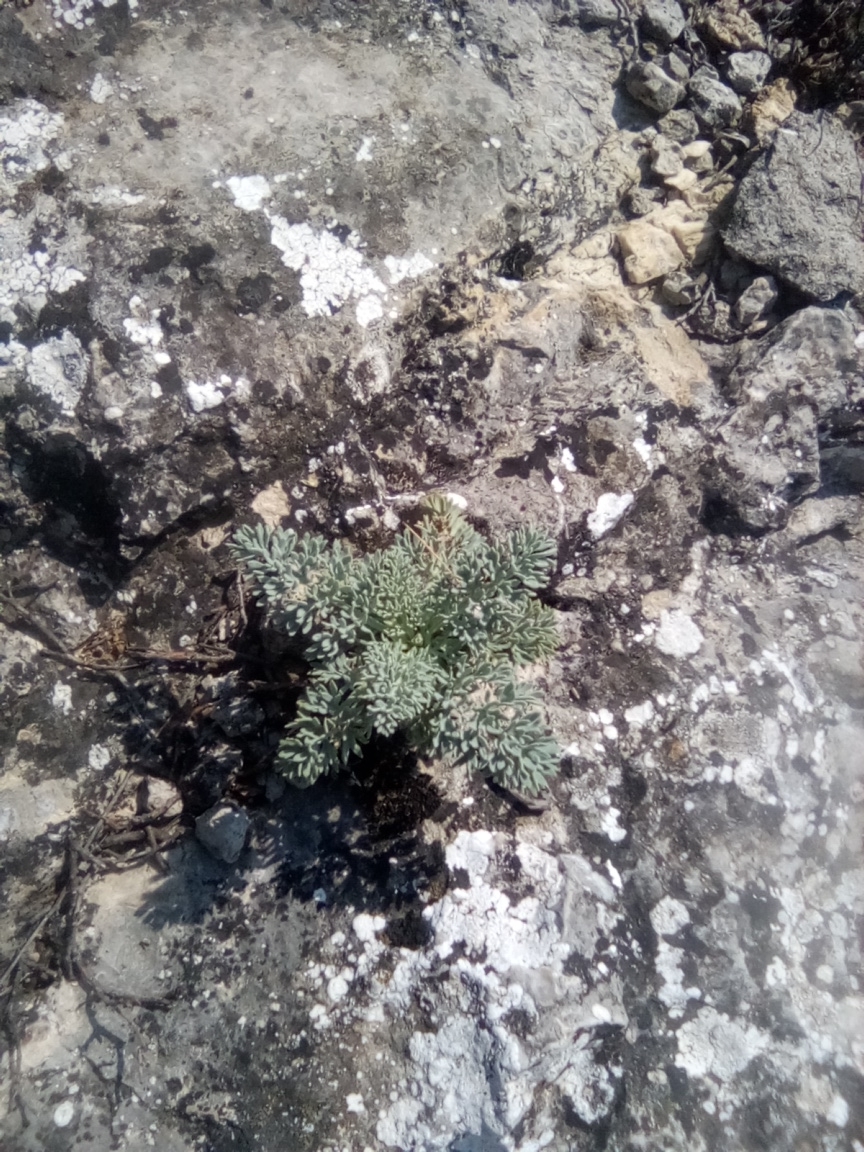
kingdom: Plantae
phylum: Tracheophyta
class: Magnoliopsida
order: Apiales
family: Apiaceae
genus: Seseli
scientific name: Seseli gummiferum
